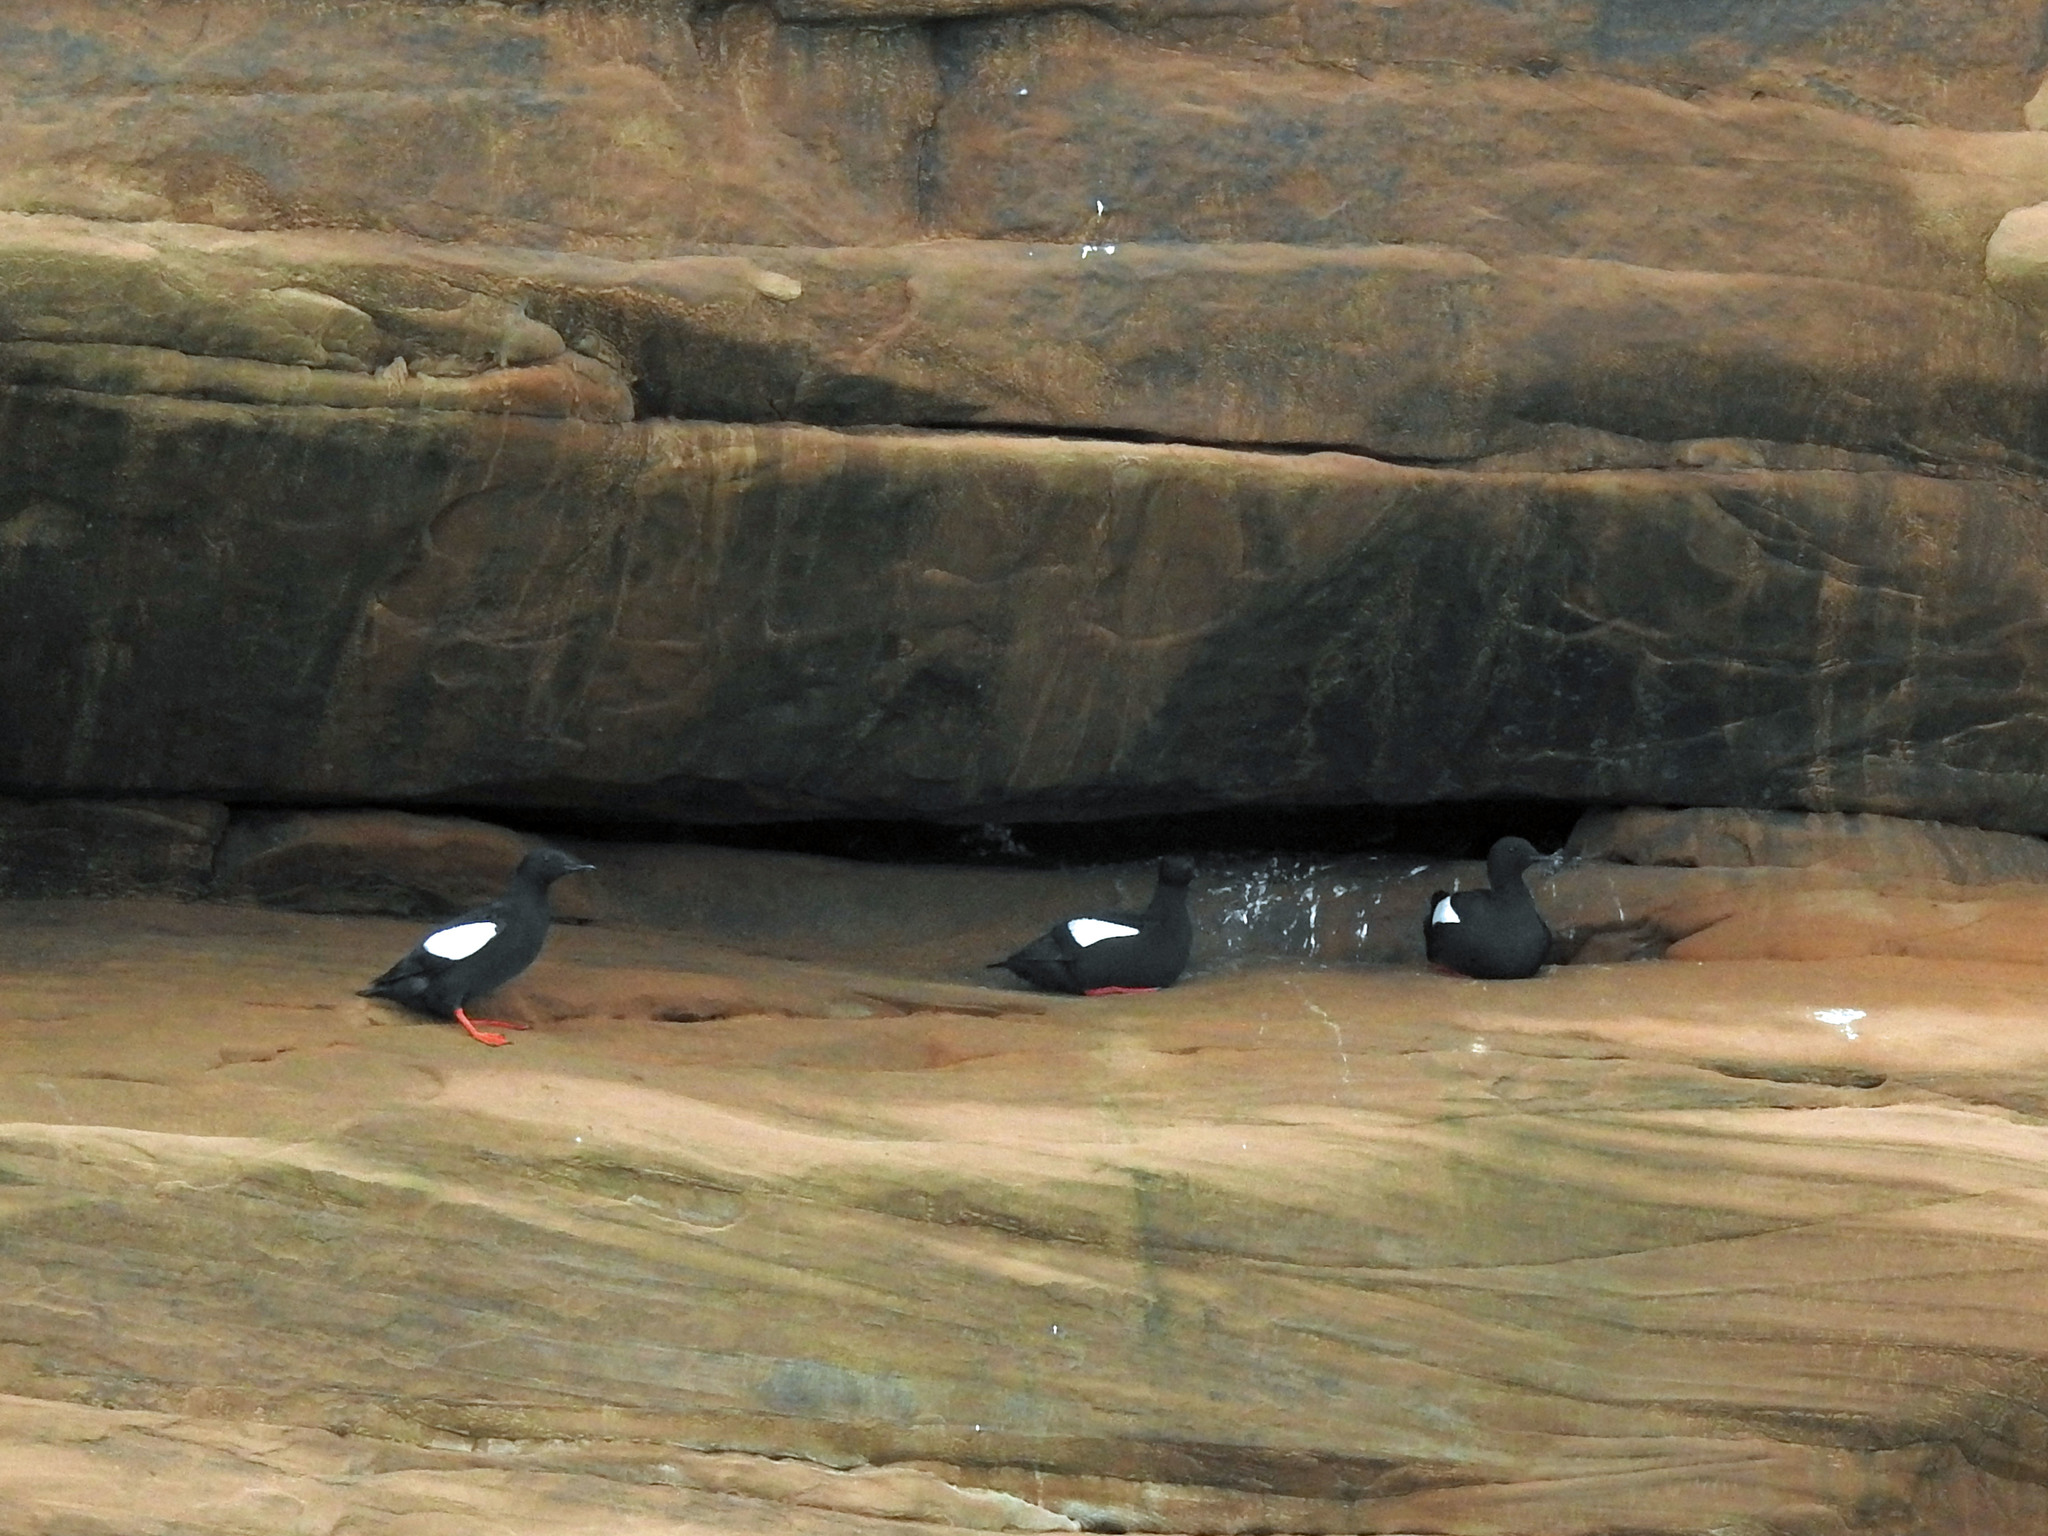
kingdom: Animalia
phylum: Chordata
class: Aves
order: Charadriiformes
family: Alcidae
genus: Cepphus
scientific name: Cepphus grylle
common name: Black guillemot
